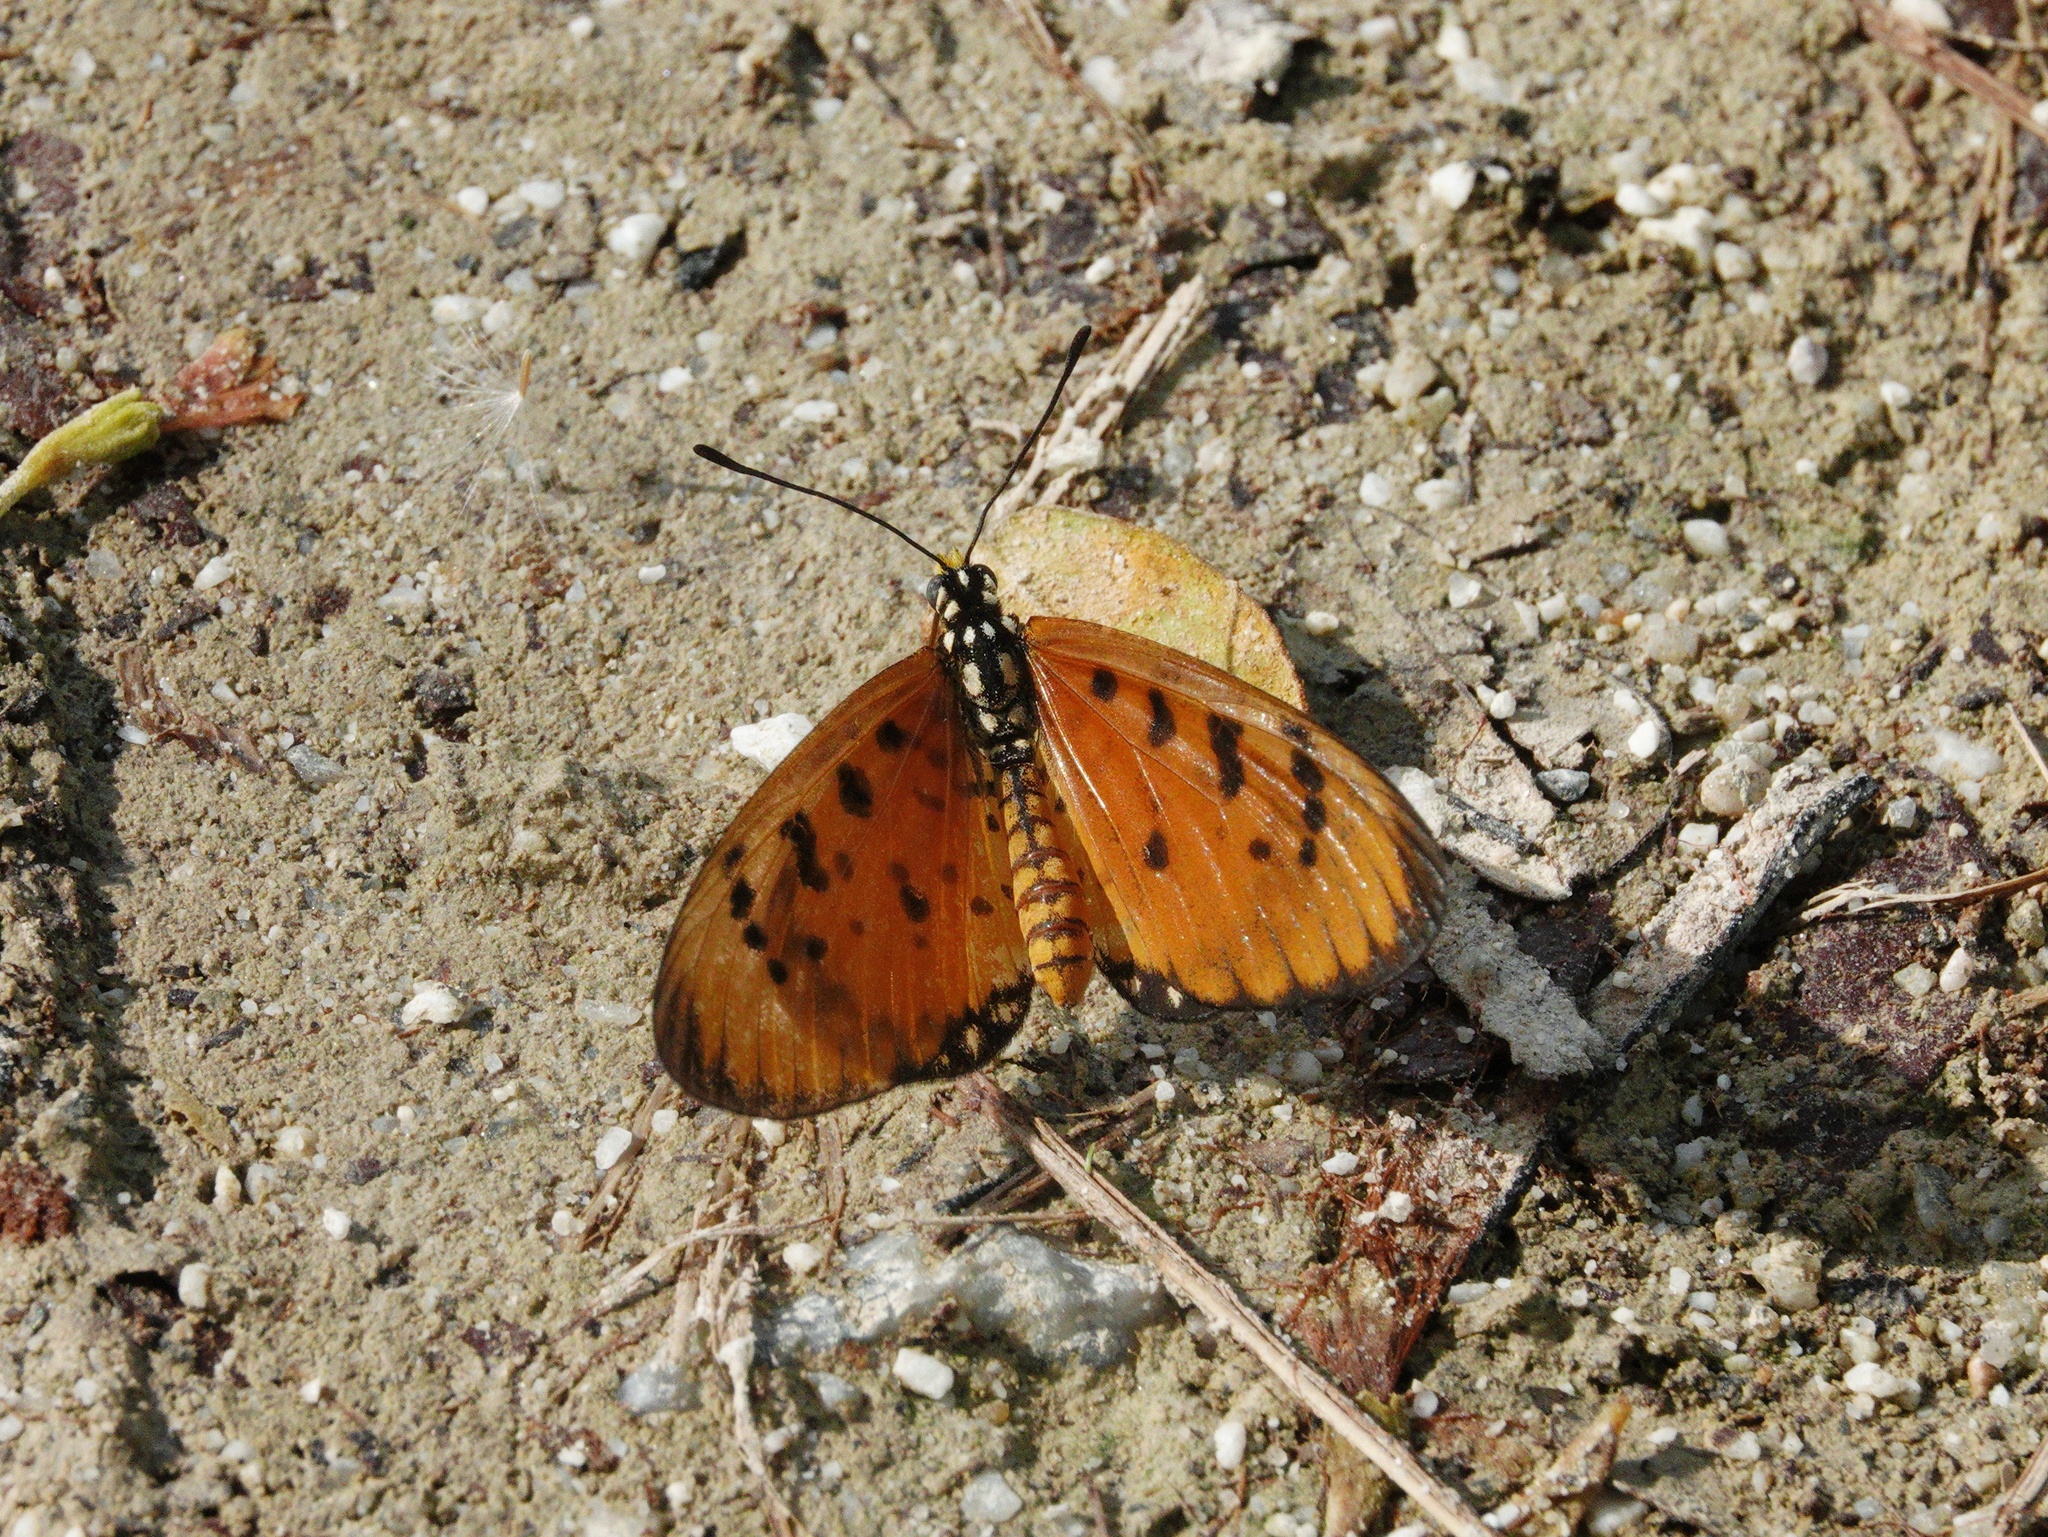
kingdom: Animalia
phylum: Arthropoda
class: Insecta
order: Lepidoptera
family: Nymphalidae
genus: Acraea
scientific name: Acraea terpsicore
